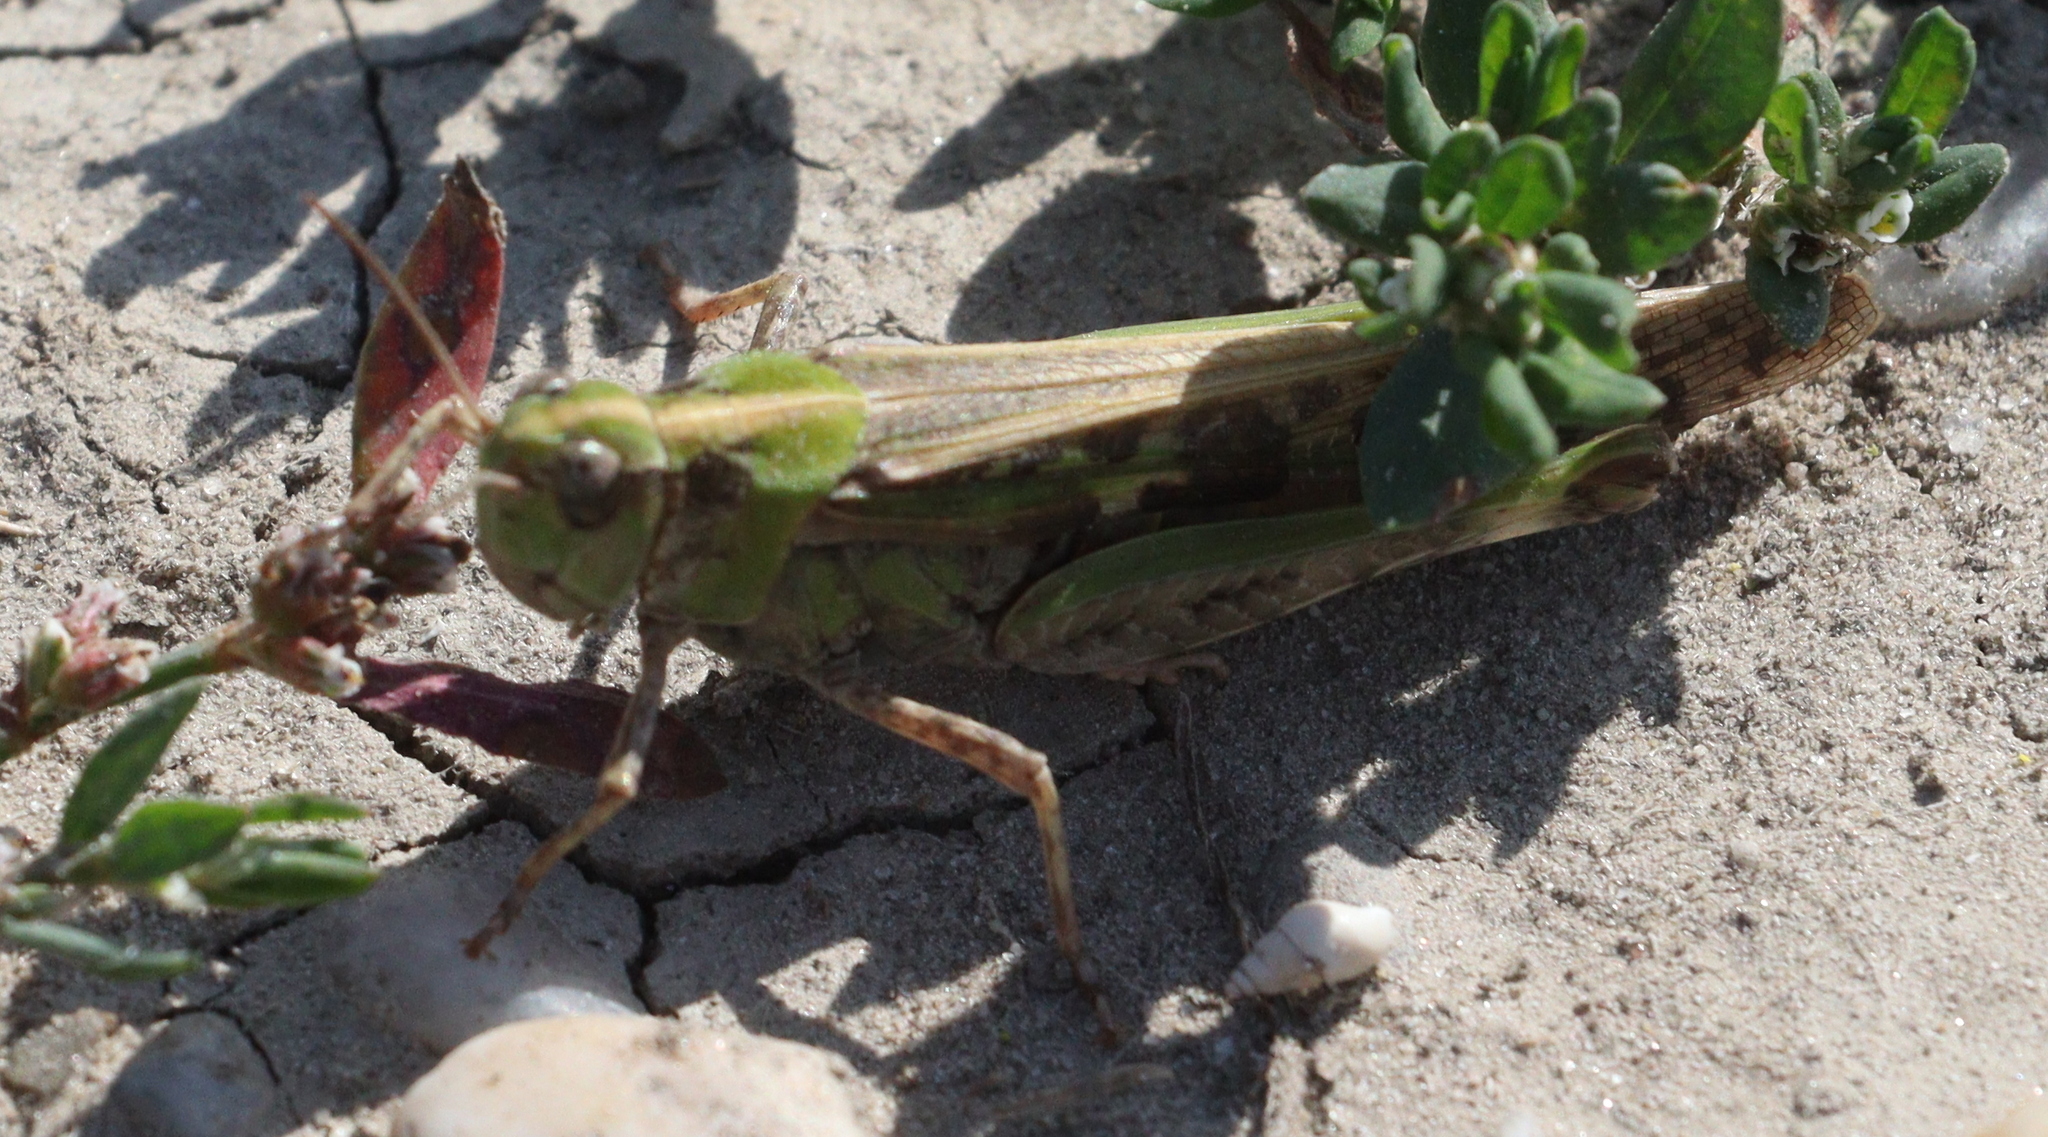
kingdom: Animalia
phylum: Arthropoda
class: Insecta
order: Orthoptera
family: Acrididae
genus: Aiolopus
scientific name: Aiolopus thalassinus
